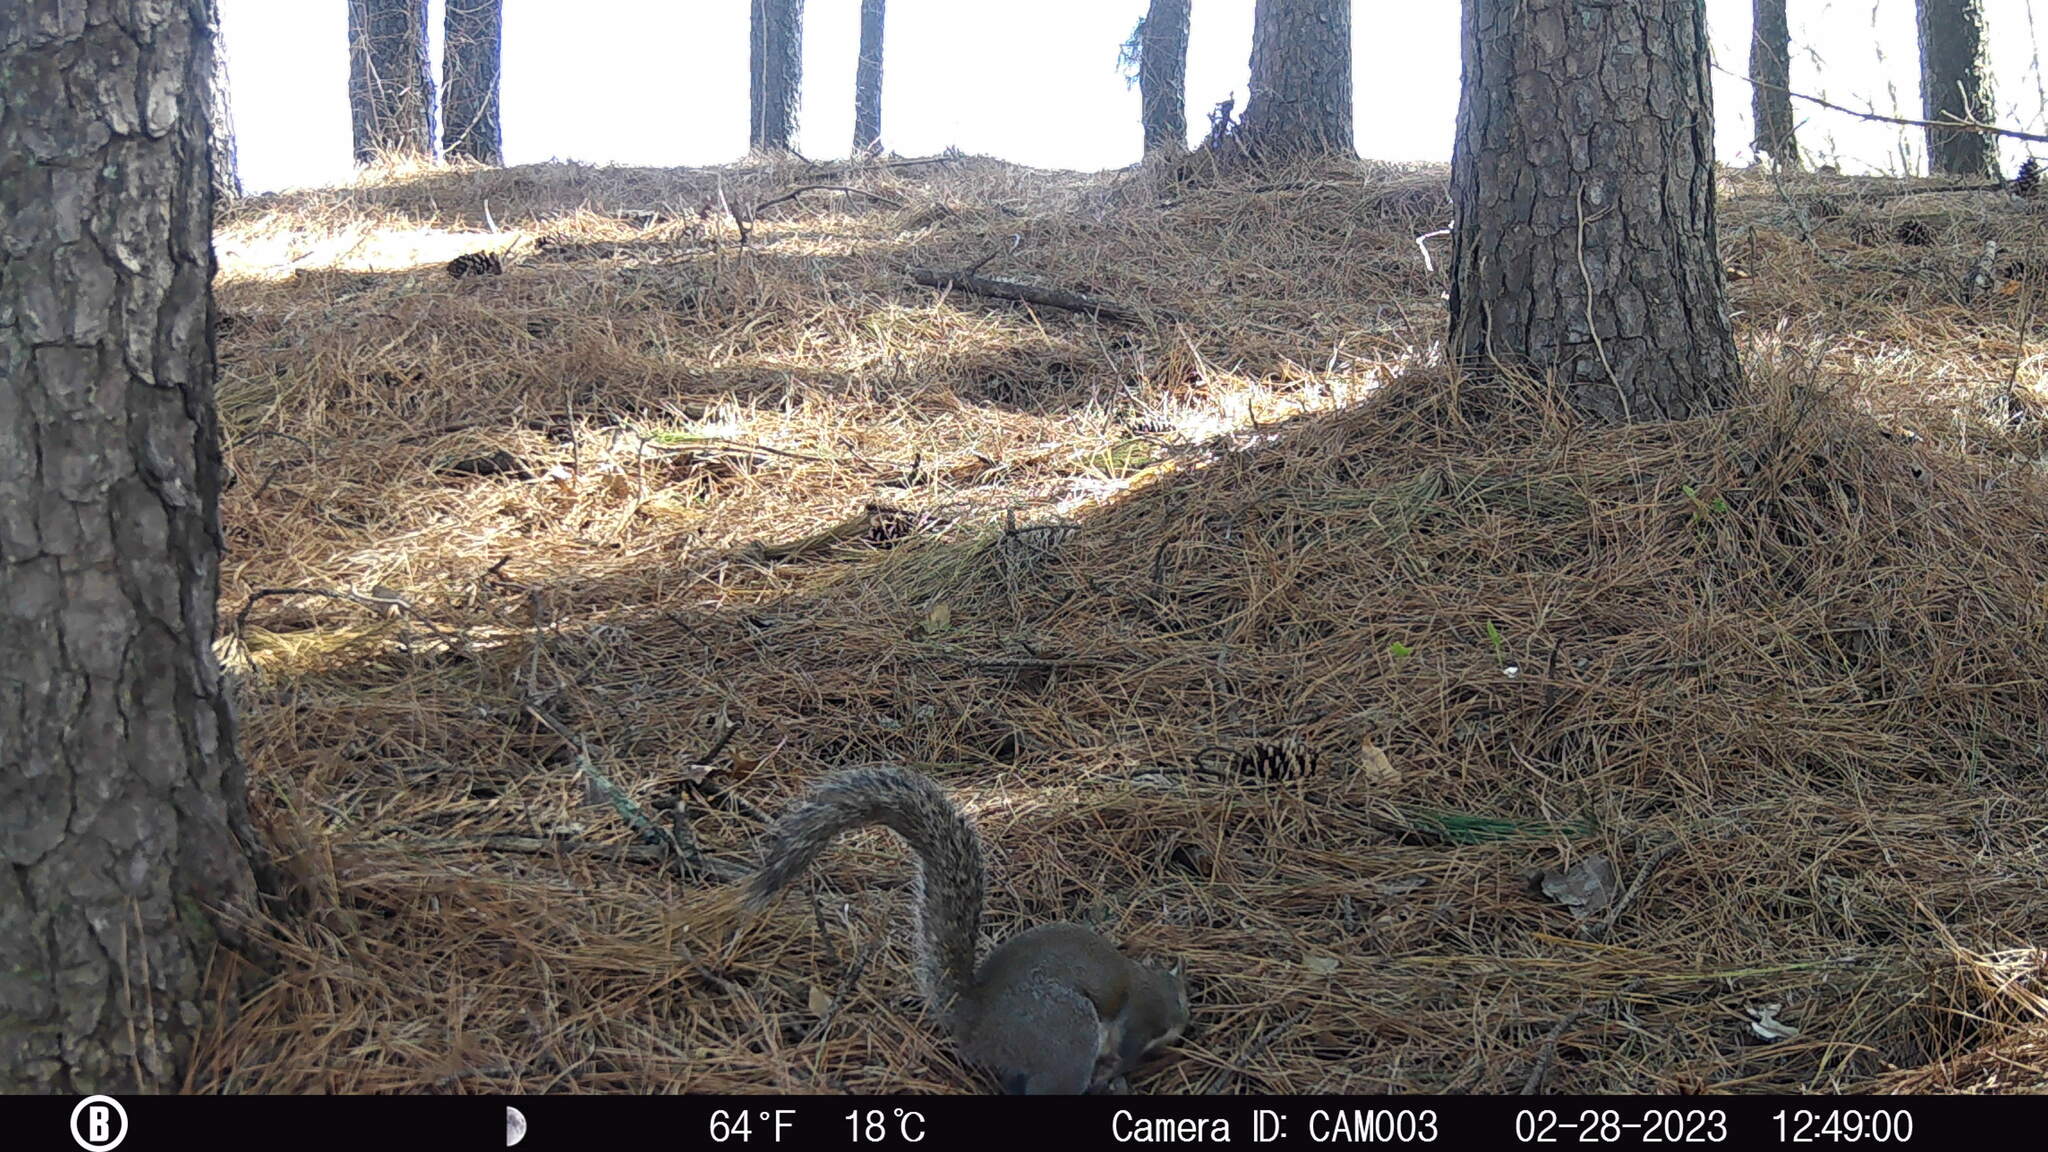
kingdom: Animalia
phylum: Chordata
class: Mammalia
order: Rodentia
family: Sciuridae
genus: Sciurus
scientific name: Sciurus carolinensis
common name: Eastern gray squirrel
